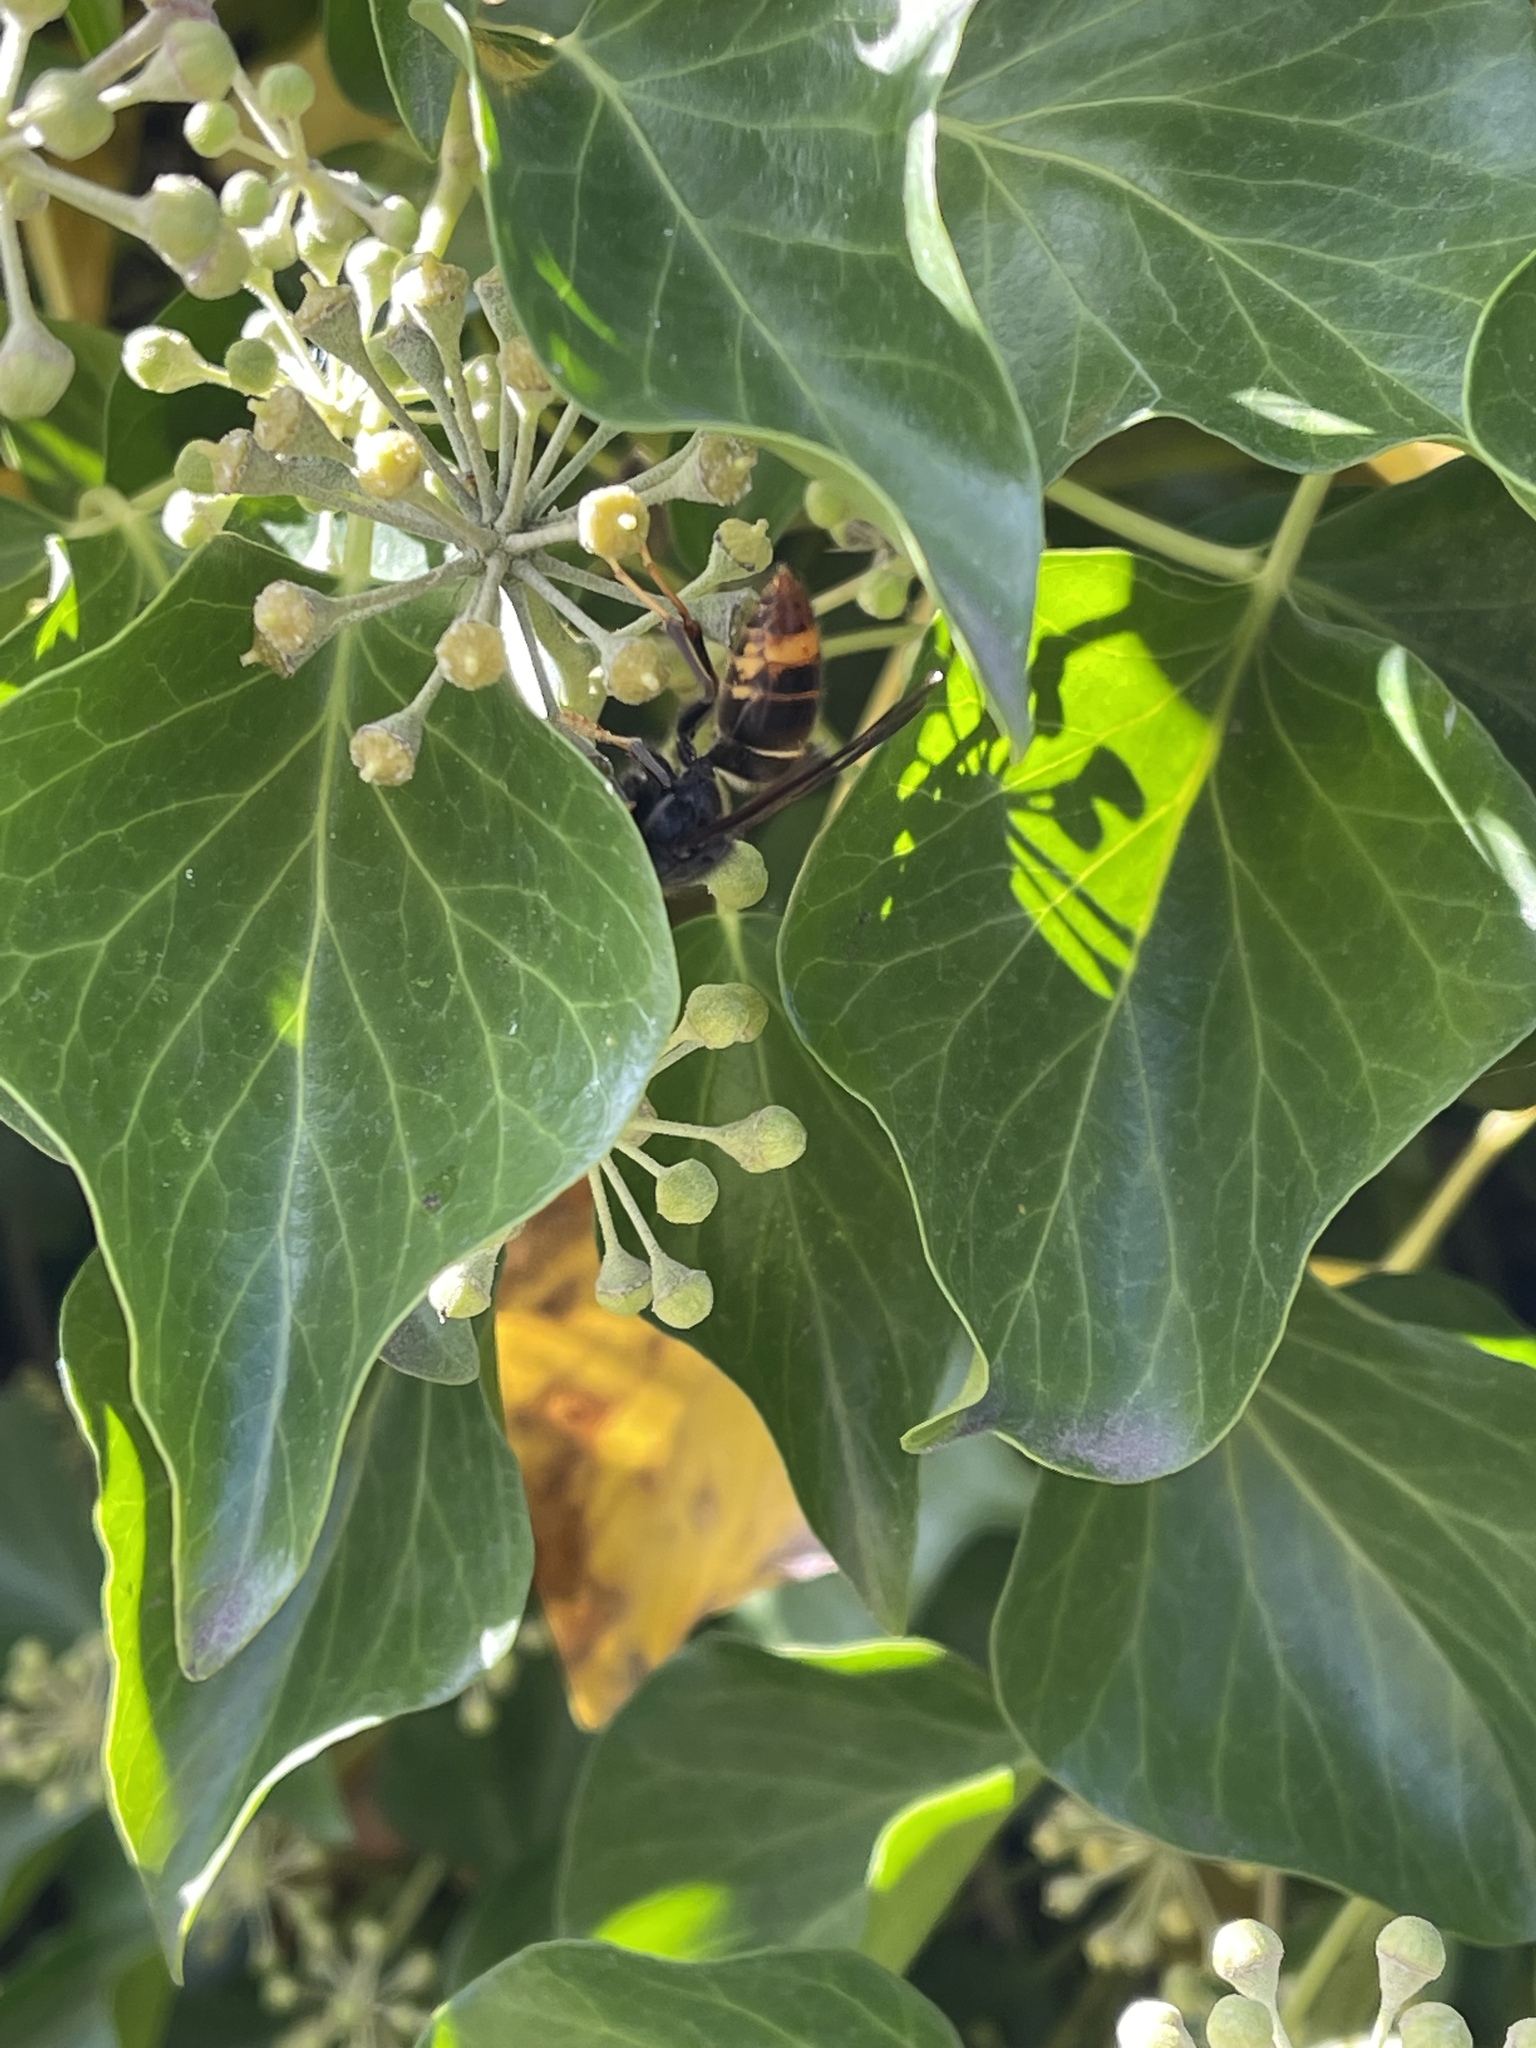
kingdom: Animalia
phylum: Arthropoda
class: Insecta
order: Hymenoptera
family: Vespidae
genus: Vespa
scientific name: Vespa velutina
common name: Asian hornet
